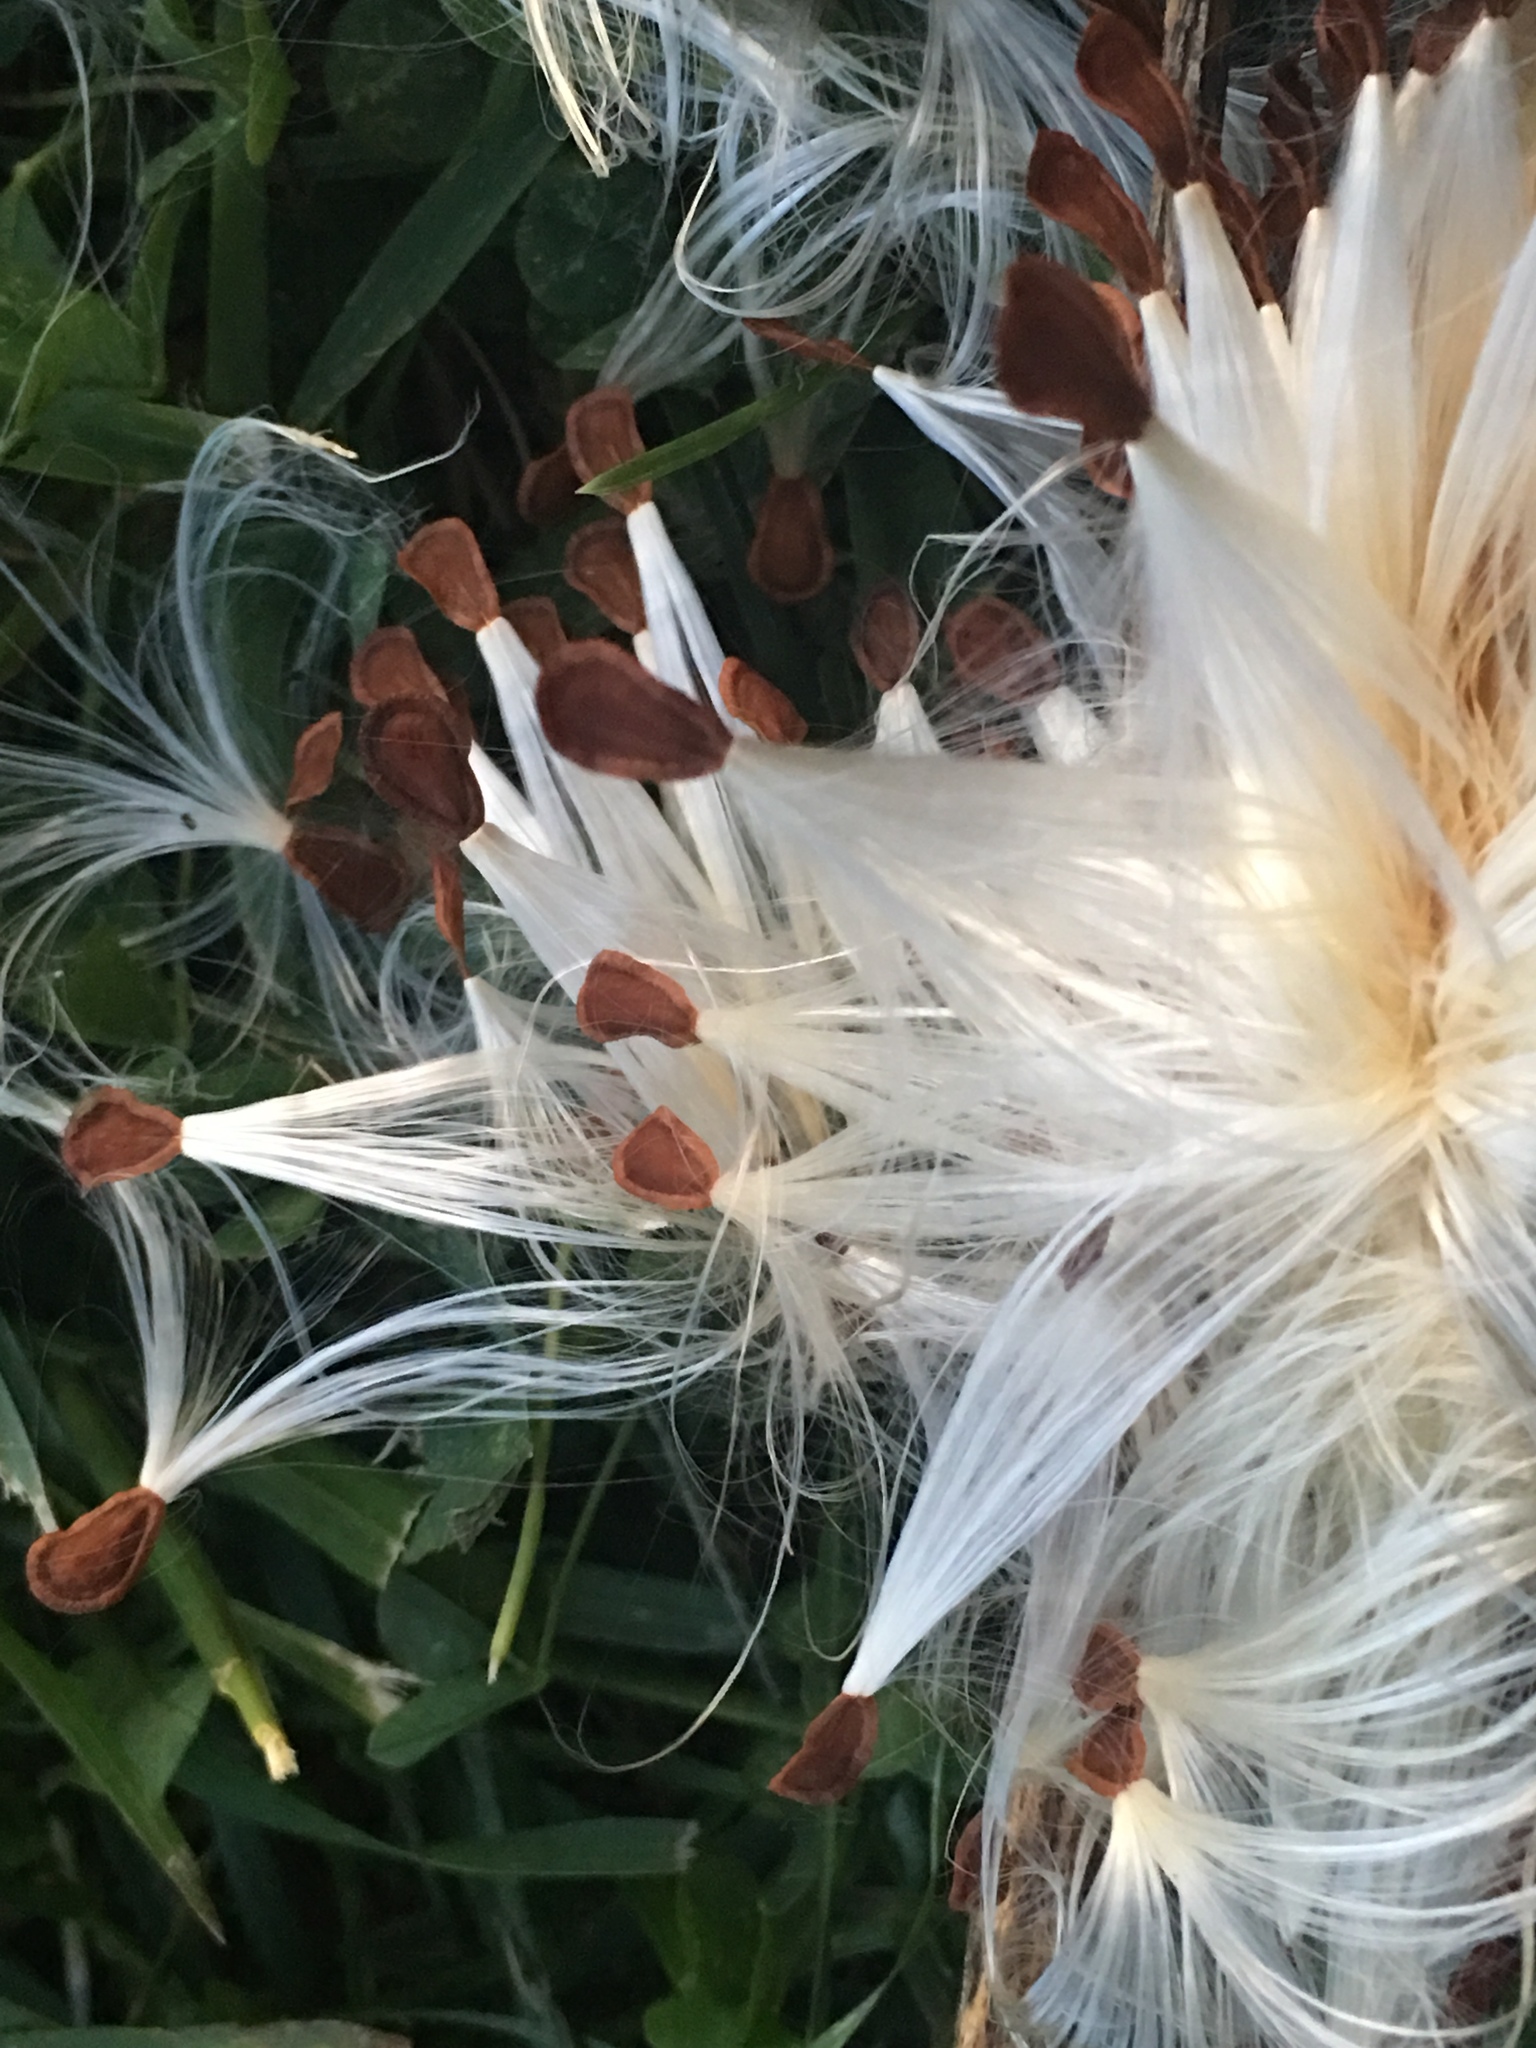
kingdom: Plantae
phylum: Tracheophyta
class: Magnoliopsida
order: Gentianales
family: Apocynaceae
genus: Asclepias
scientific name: Asclepias syriaca
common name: Common milkweed
